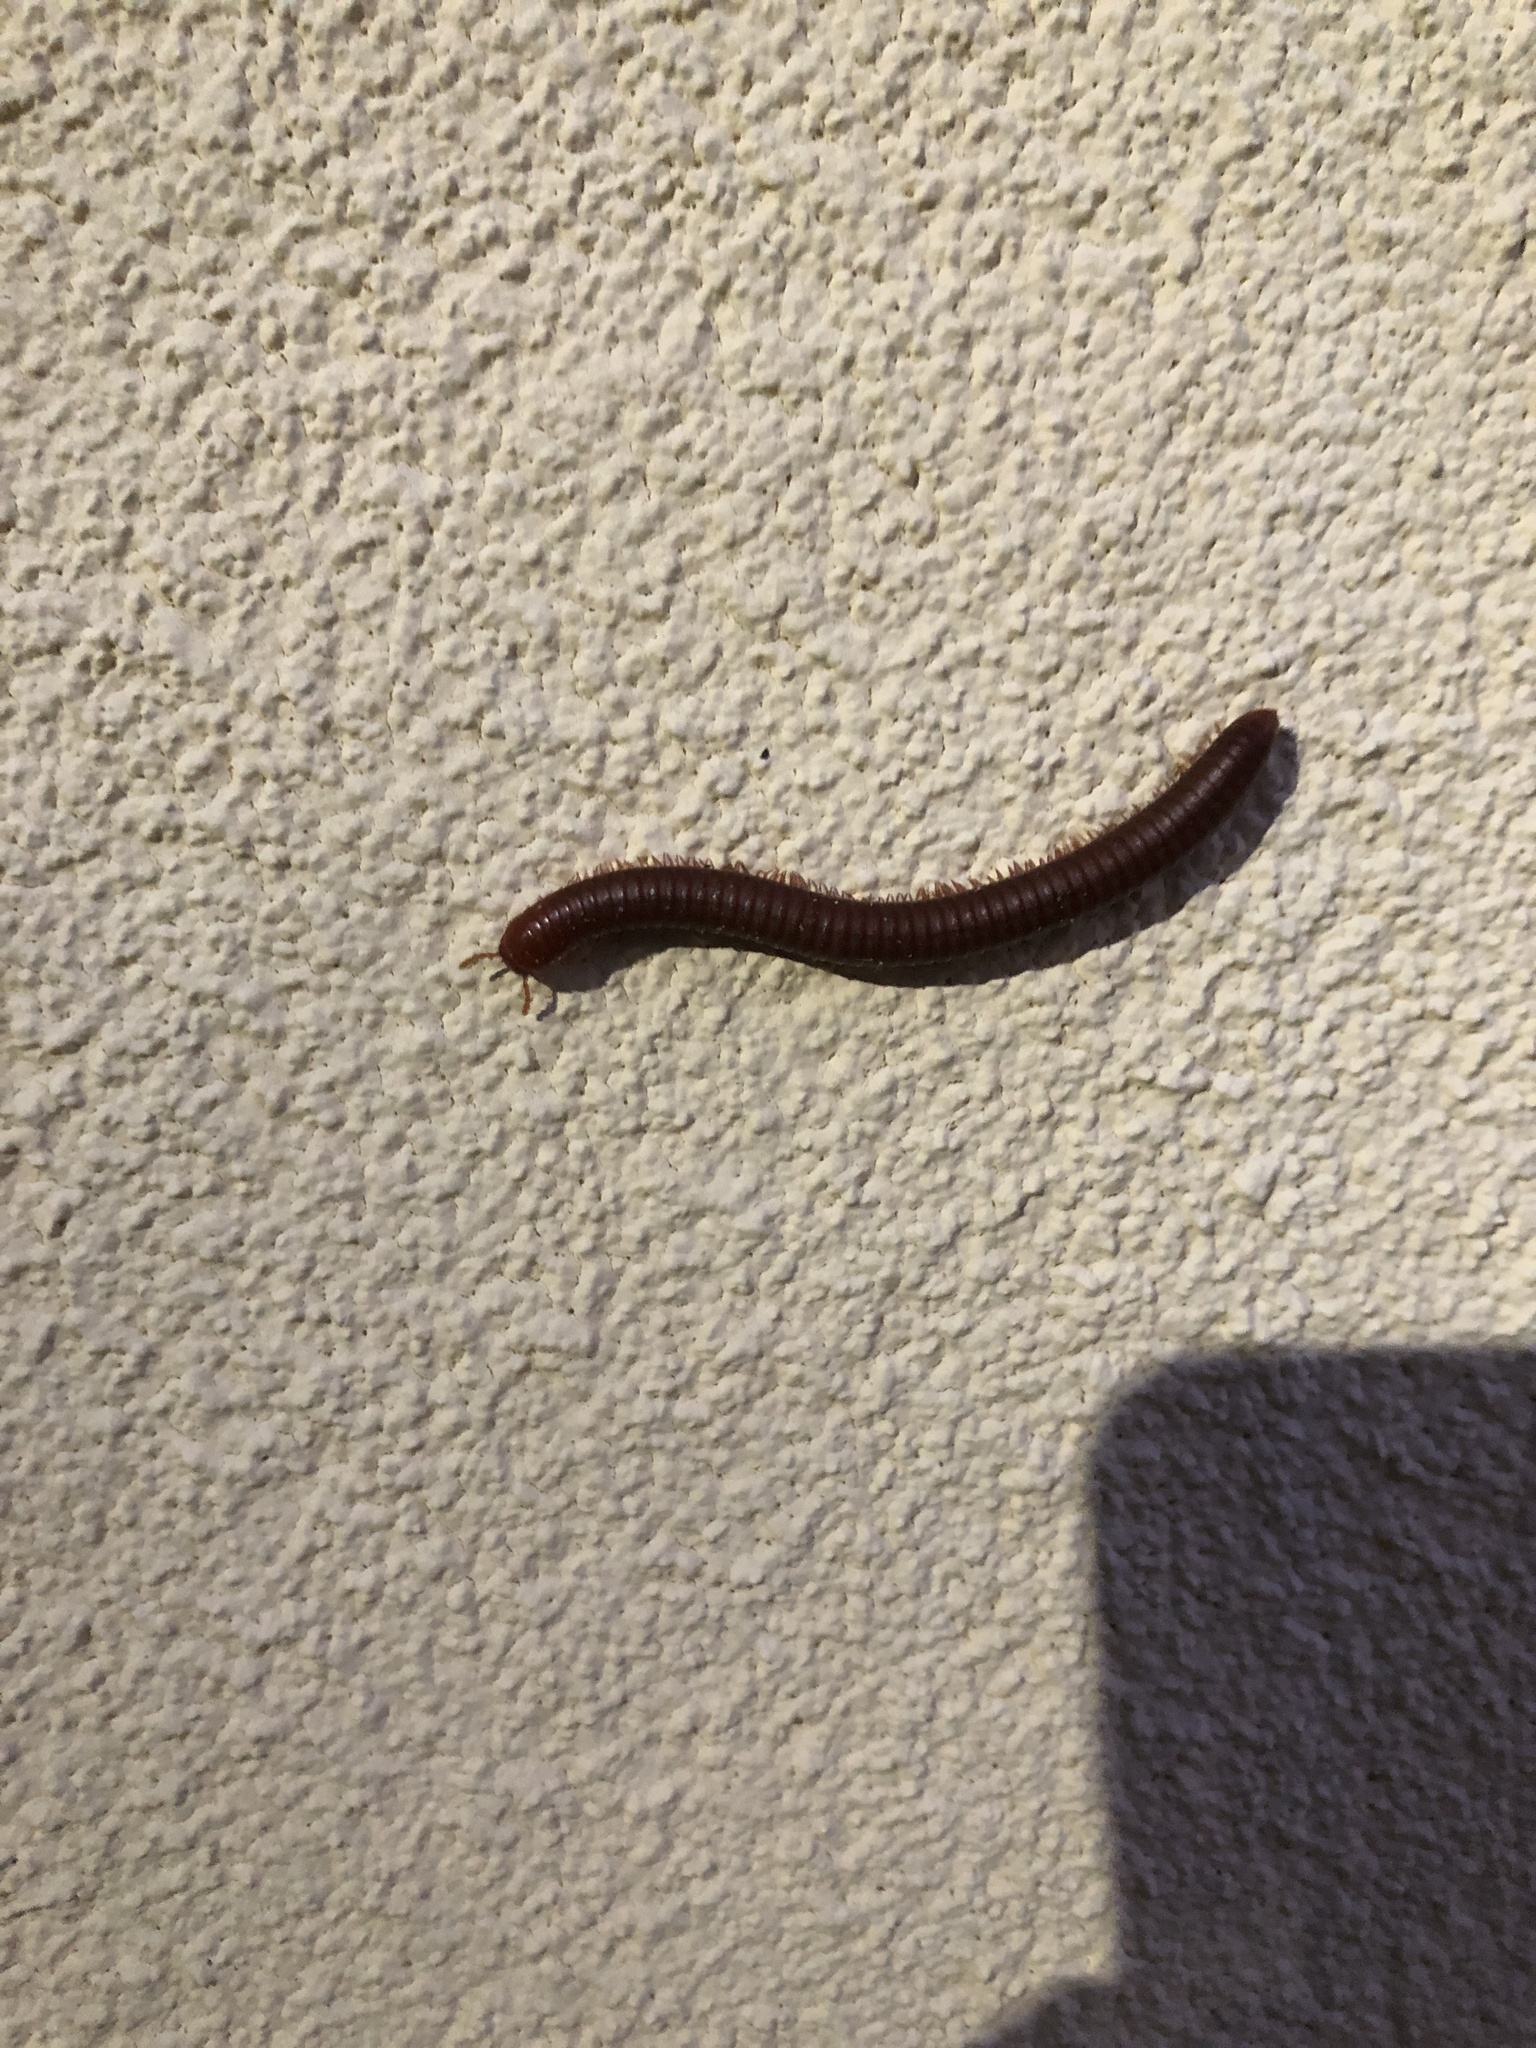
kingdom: Animalia
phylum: Arthropoda
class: Diplopoda
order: Spirobolida
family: Pachybolidae
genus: Trigoniulus
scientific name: Trigoniulus corallinus
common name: Millipede
